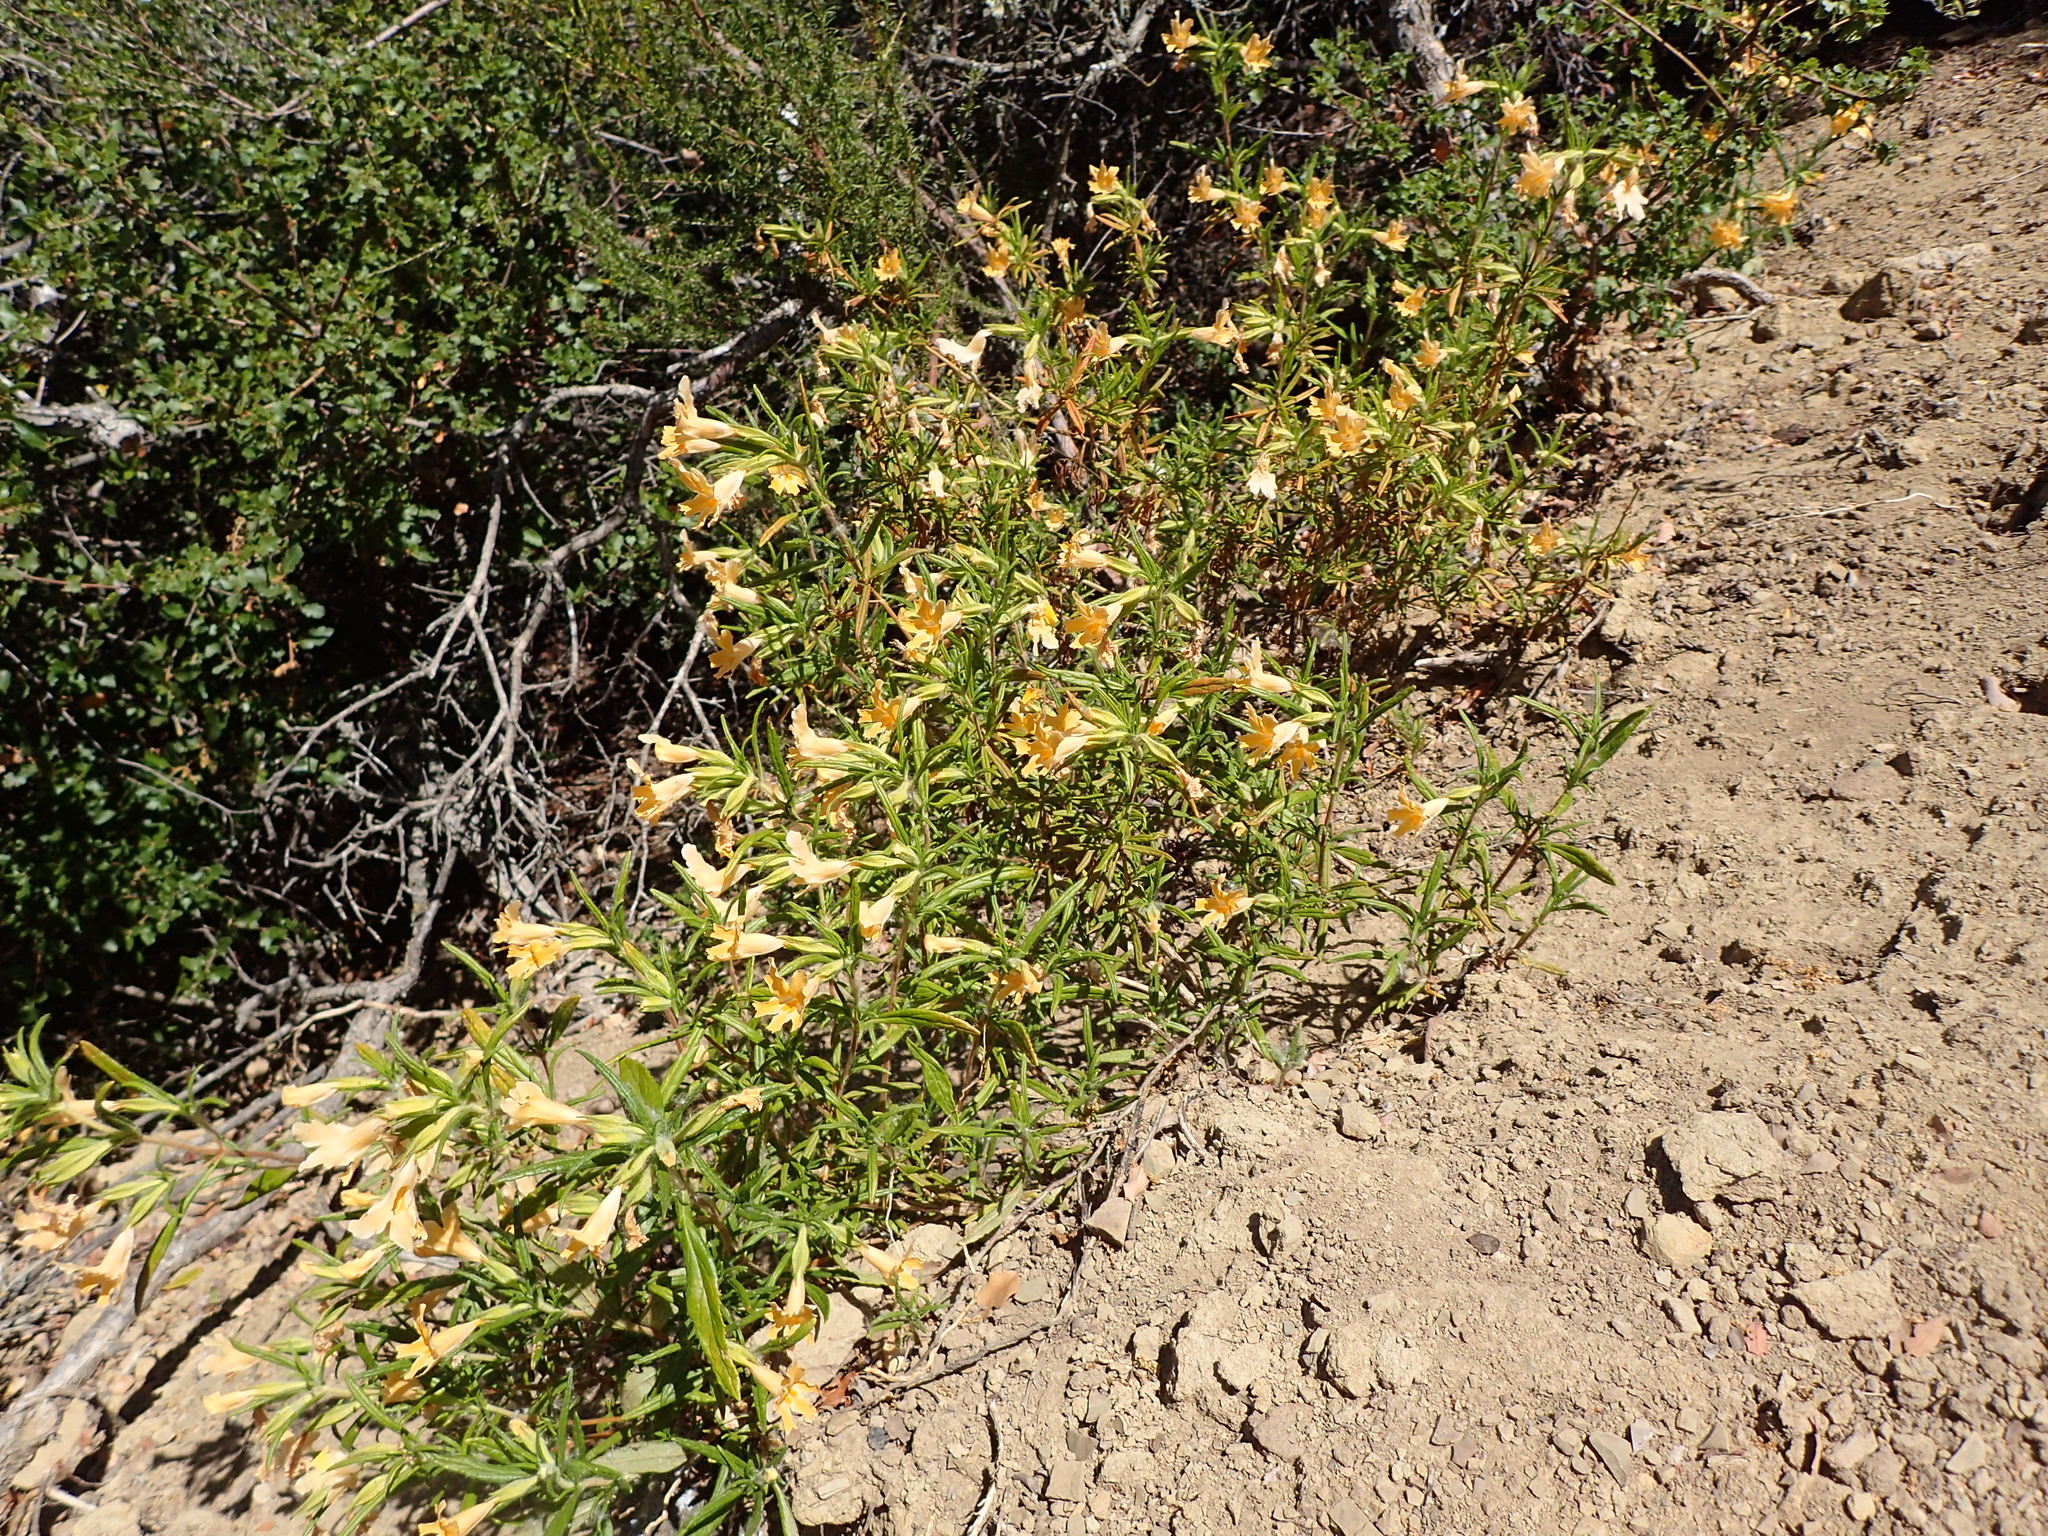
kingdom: Plantae
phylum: Tracheophyta
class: Magnoliopsida
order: Lamiales
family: Phrymaceae
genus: Diplacus
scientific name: Diplacus longiflorus
